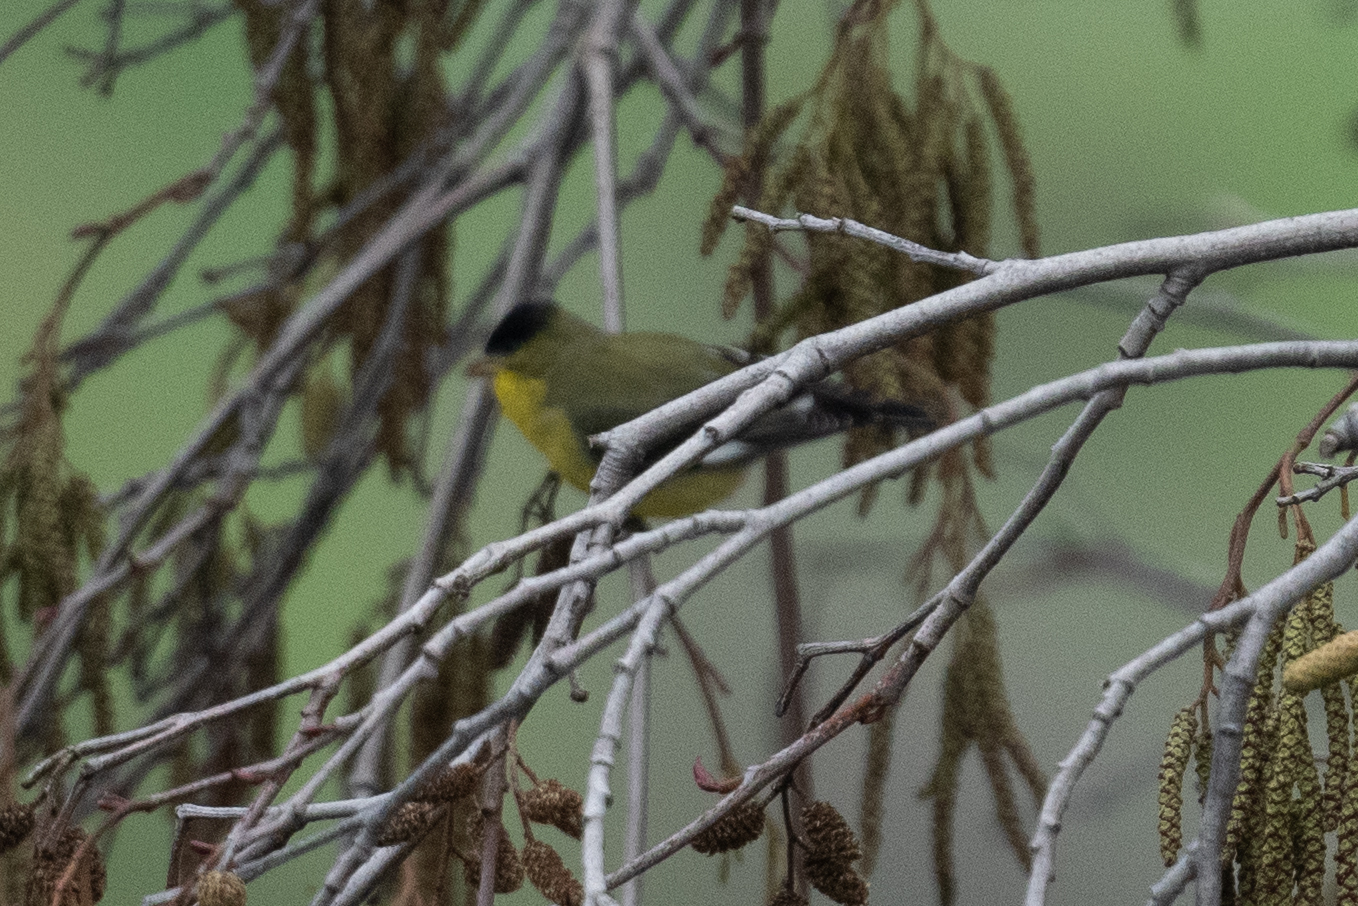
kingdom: Animalia
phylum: Chordata
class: Aves
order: Passeriformes
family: Fringillidae
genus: Spinus
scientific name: Spinus psaltria
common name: Lesser goldfinch
